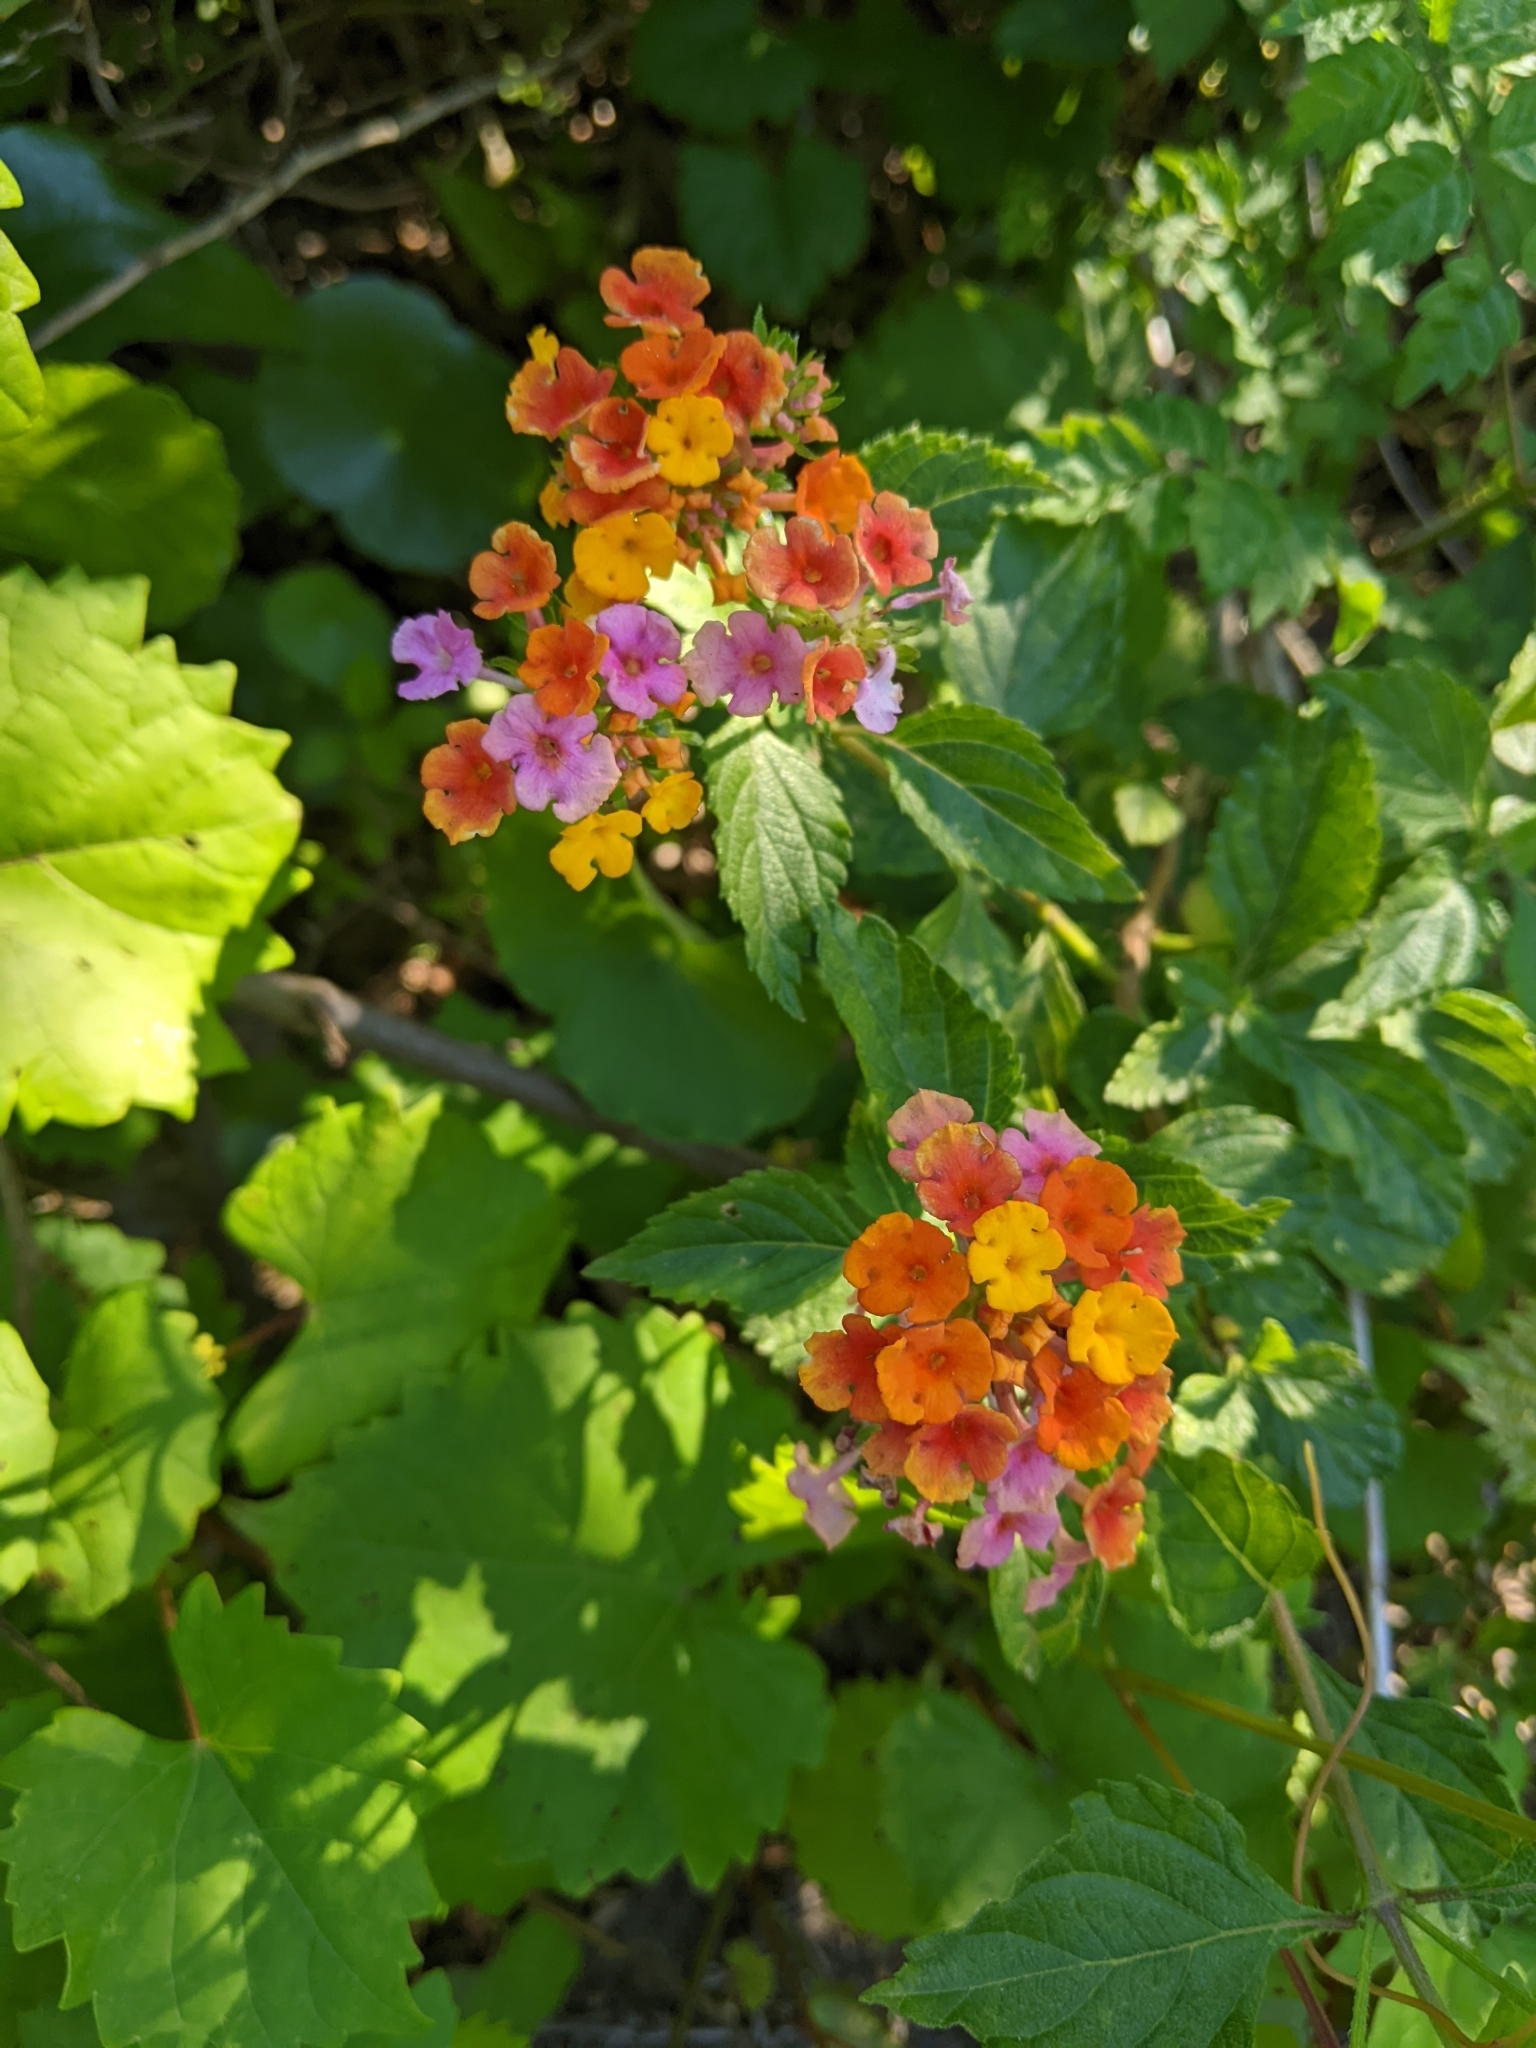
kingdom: Plantae
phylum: Tracheophyta
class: Magnoliopsida
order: Lamiales
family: Verbenaceae
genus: Lantana
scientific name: Lantana strigocamara
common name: Lantana
